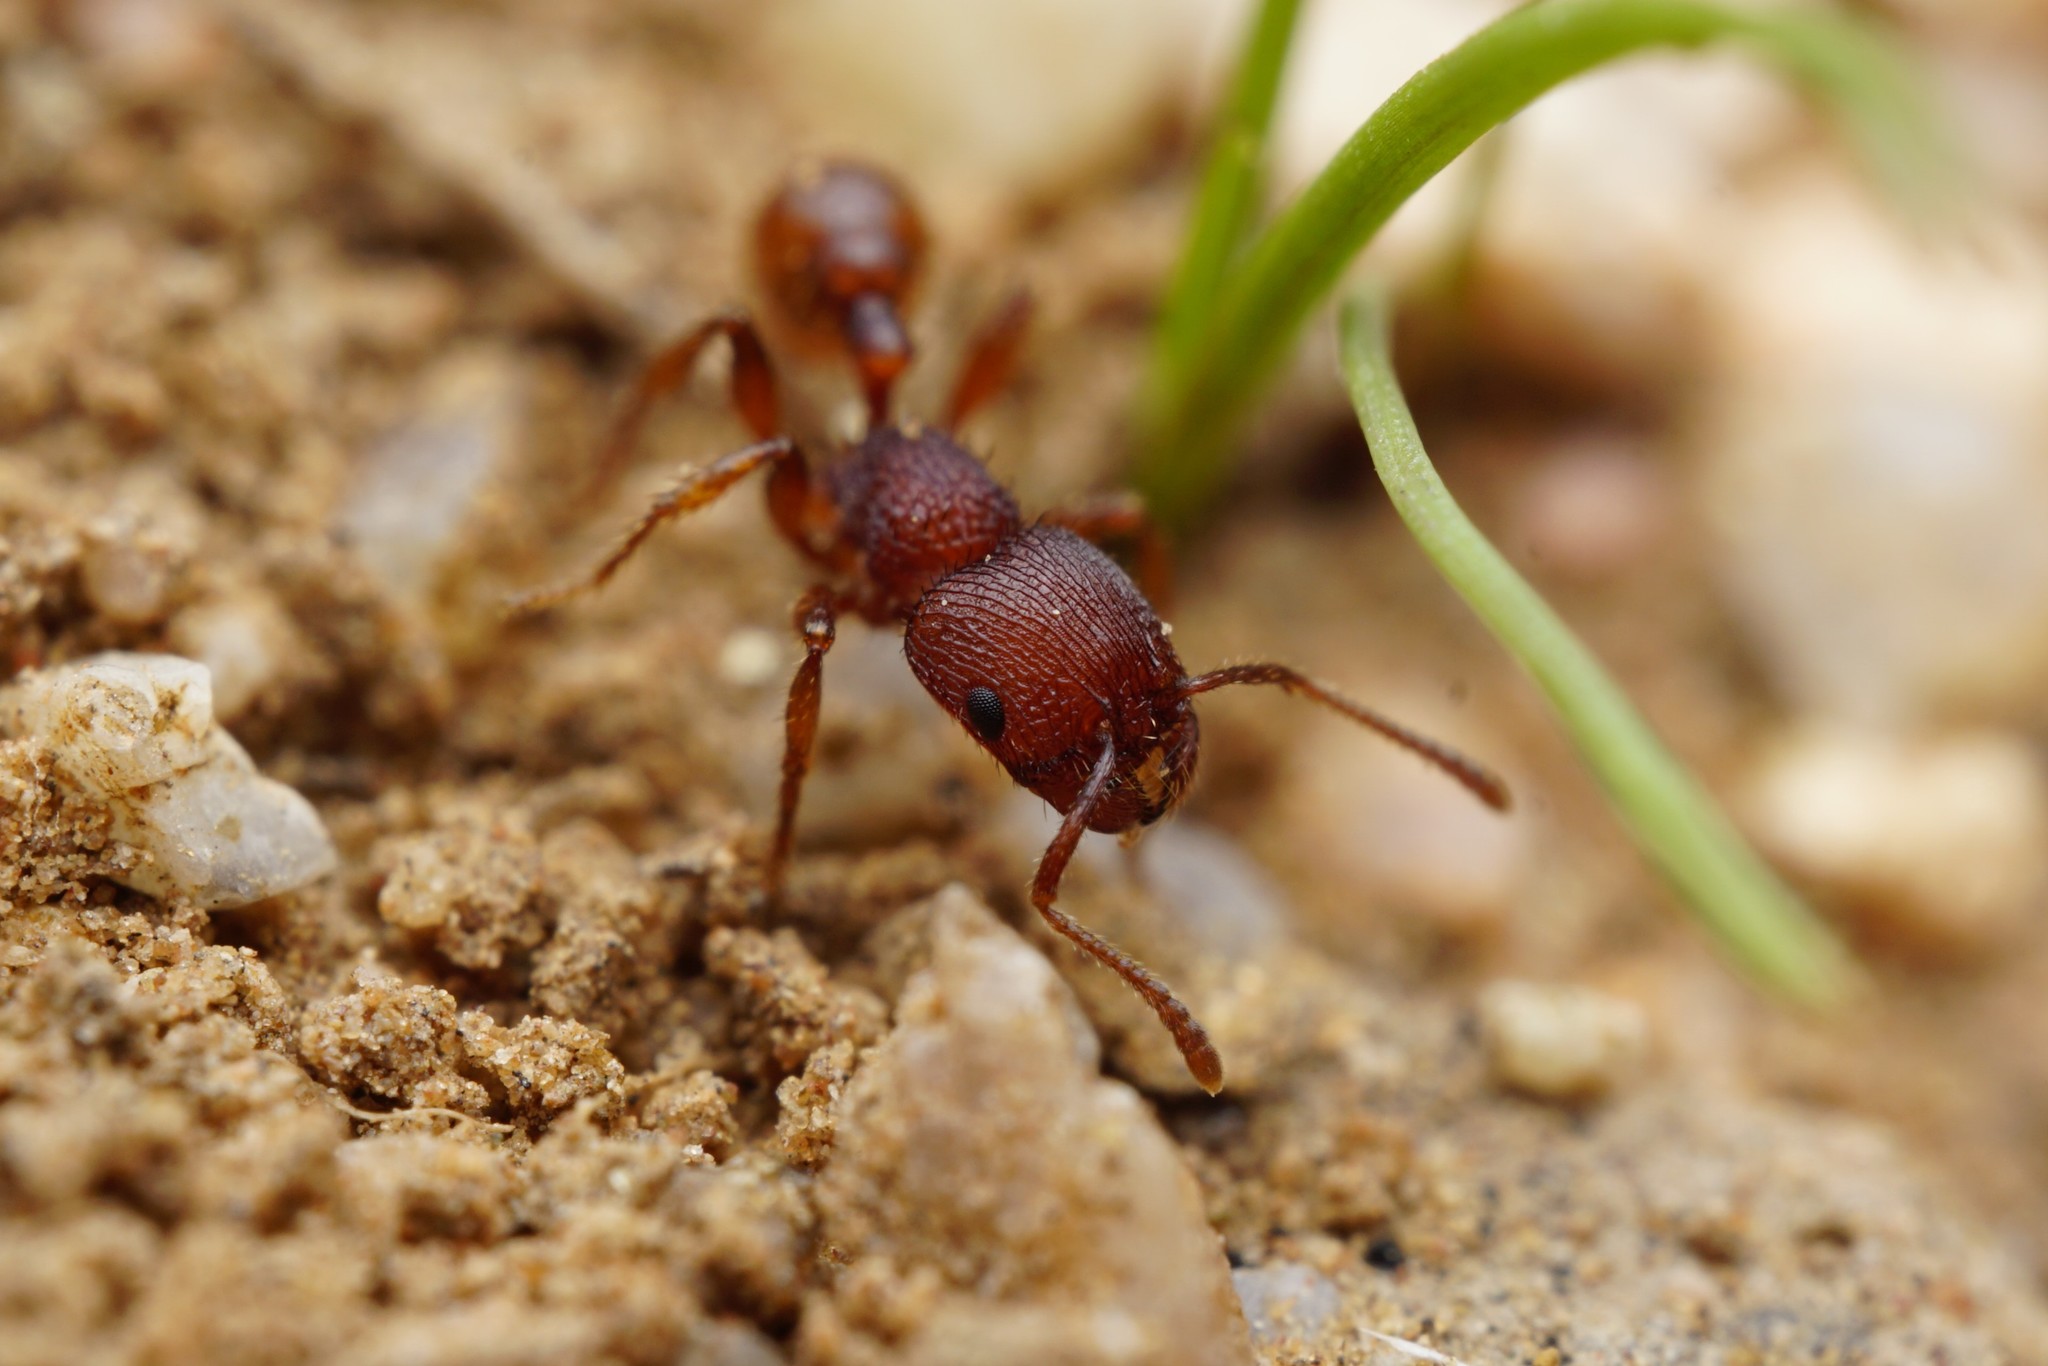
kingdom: Animalia
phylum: Arthropoda
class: Insecta
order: Hymenoptera
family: Formicidae
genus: Pogonomyrmex
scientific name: Pogonomyrmex pima
